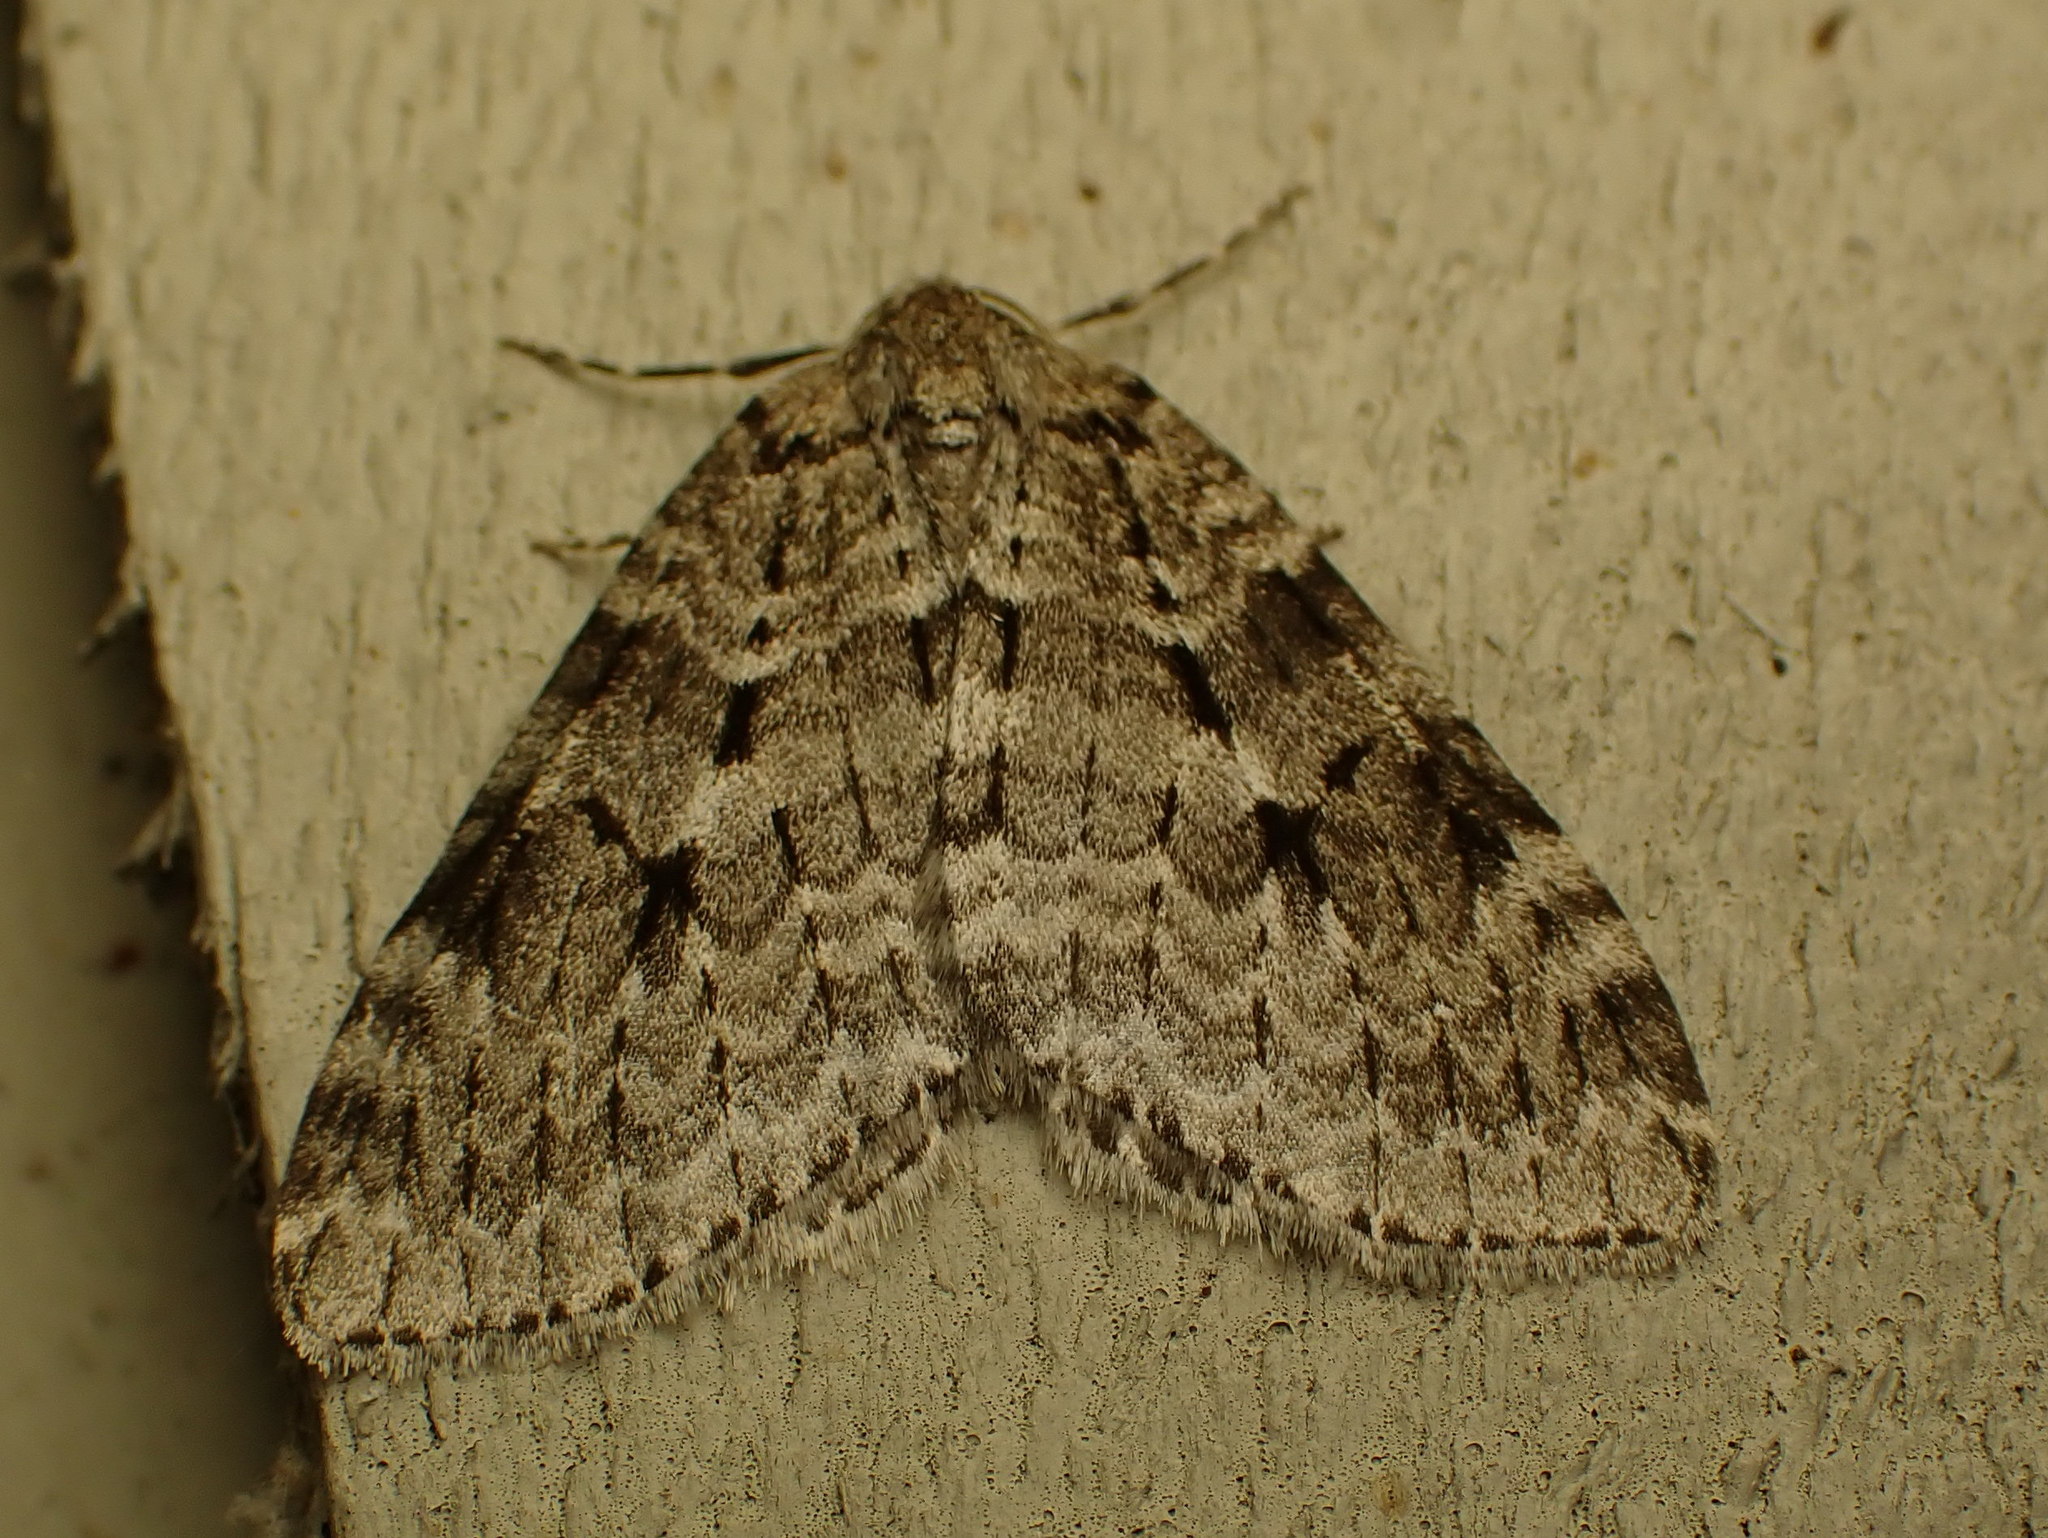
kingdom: Animalia
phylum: Arthropoda
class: Insecta
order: Lepidoptera
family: Geometridae
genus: Epirrita
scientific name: Epirrita autumnata
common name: Autumnal moth
